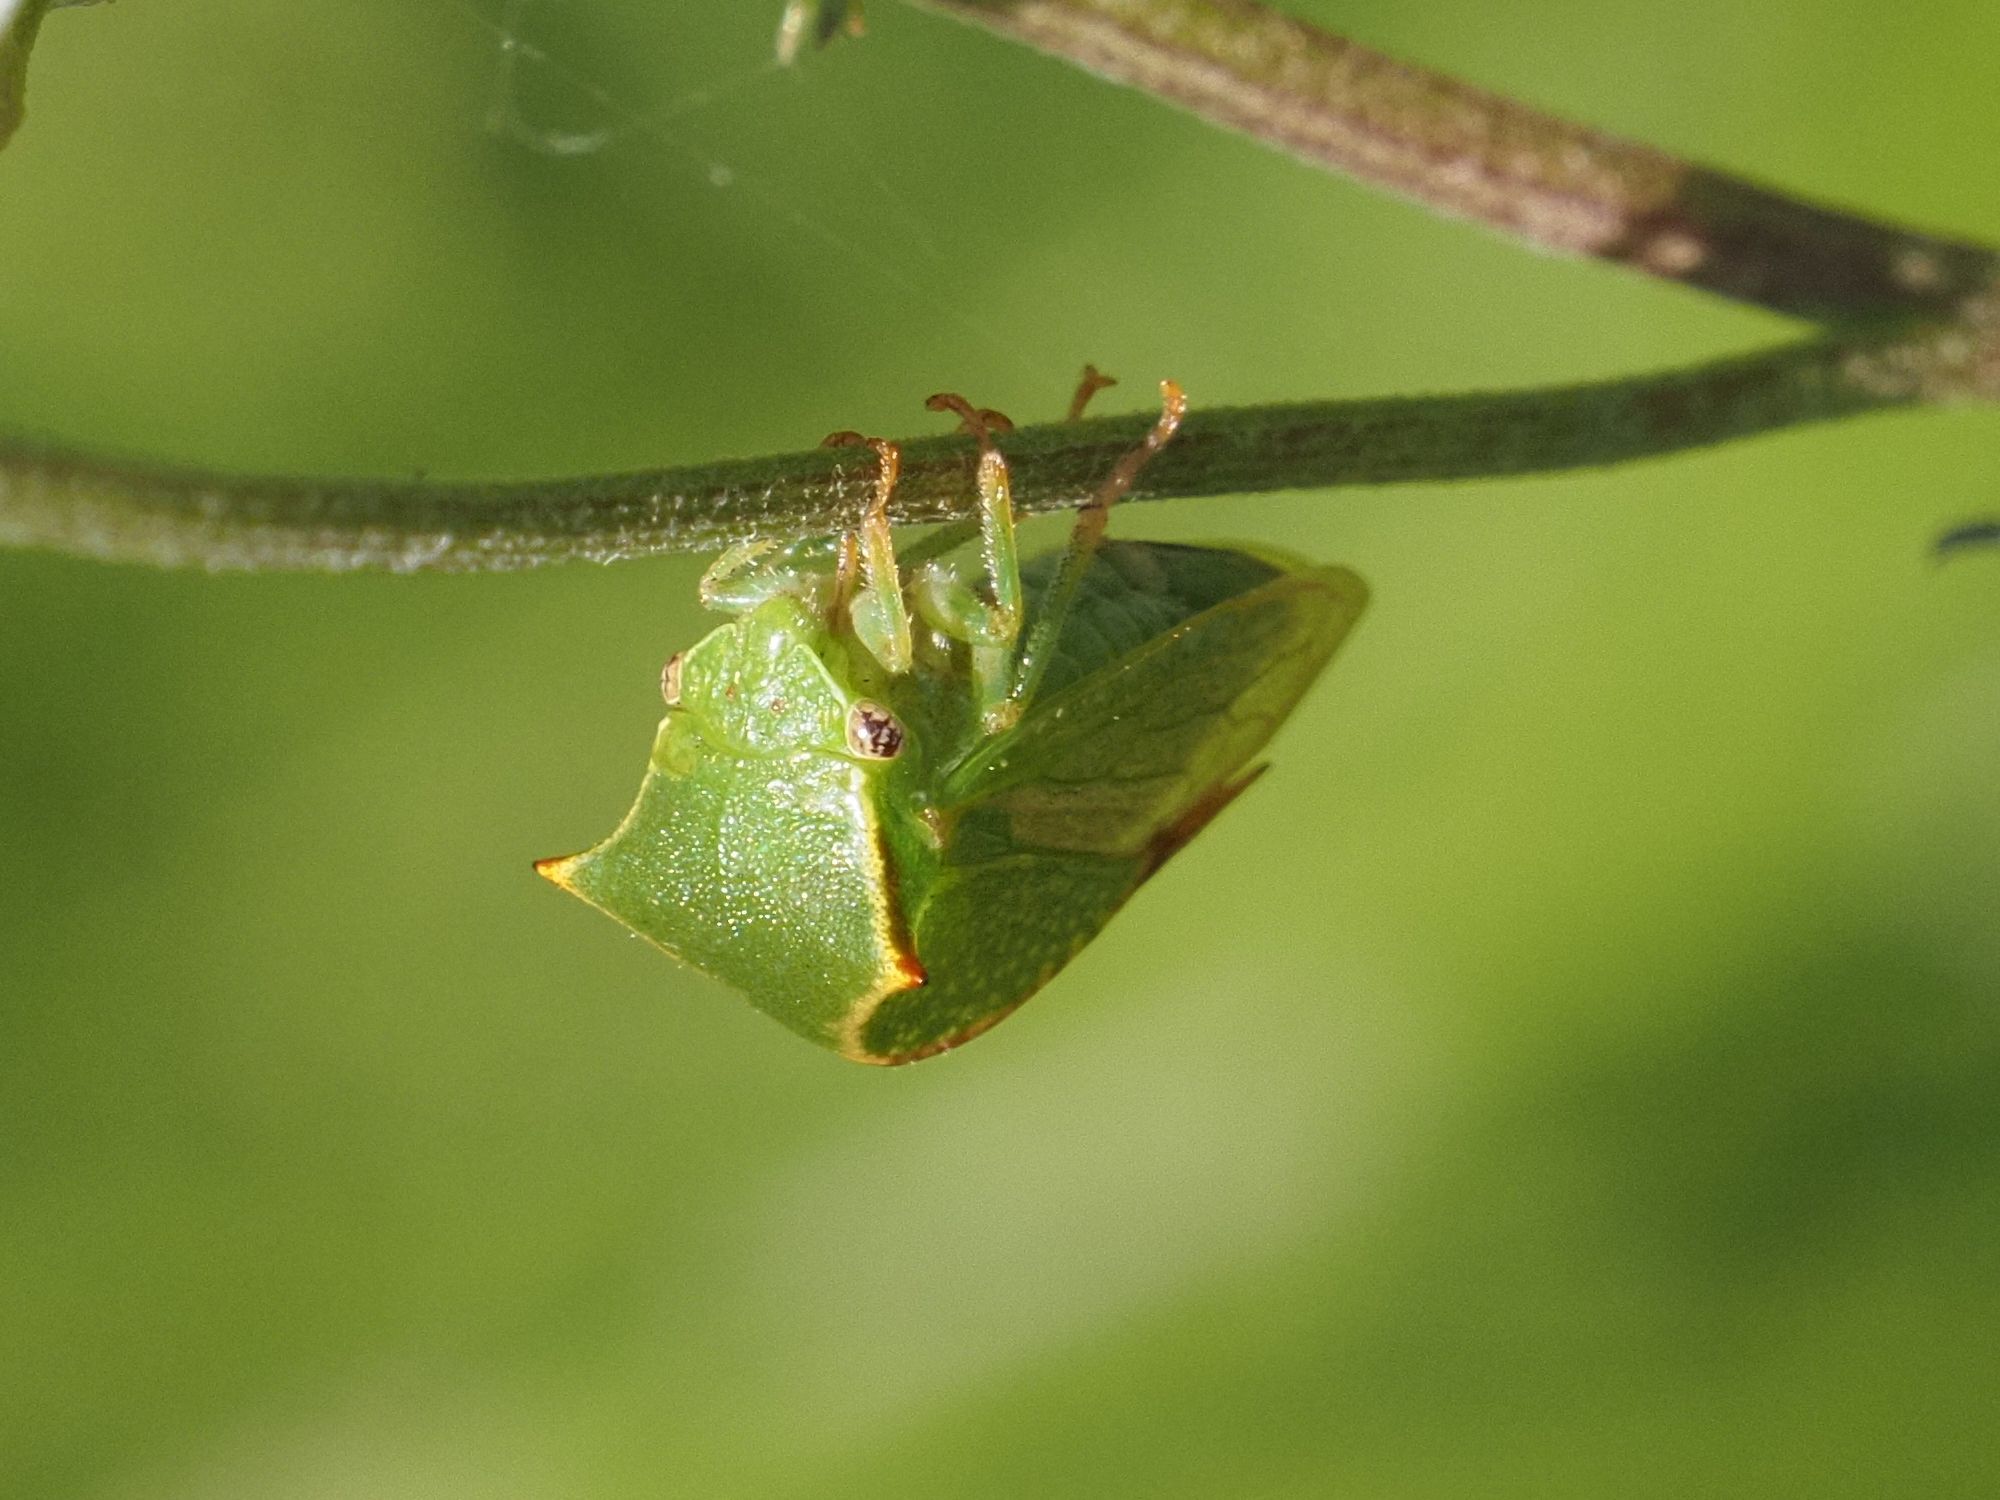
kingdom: Animalia
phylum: Arthropoda
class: Insecta
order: Hemiptera
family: Membracidae
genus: Stictocephala
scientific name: Stictocephala bisonia
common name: American buffalo treehopper
